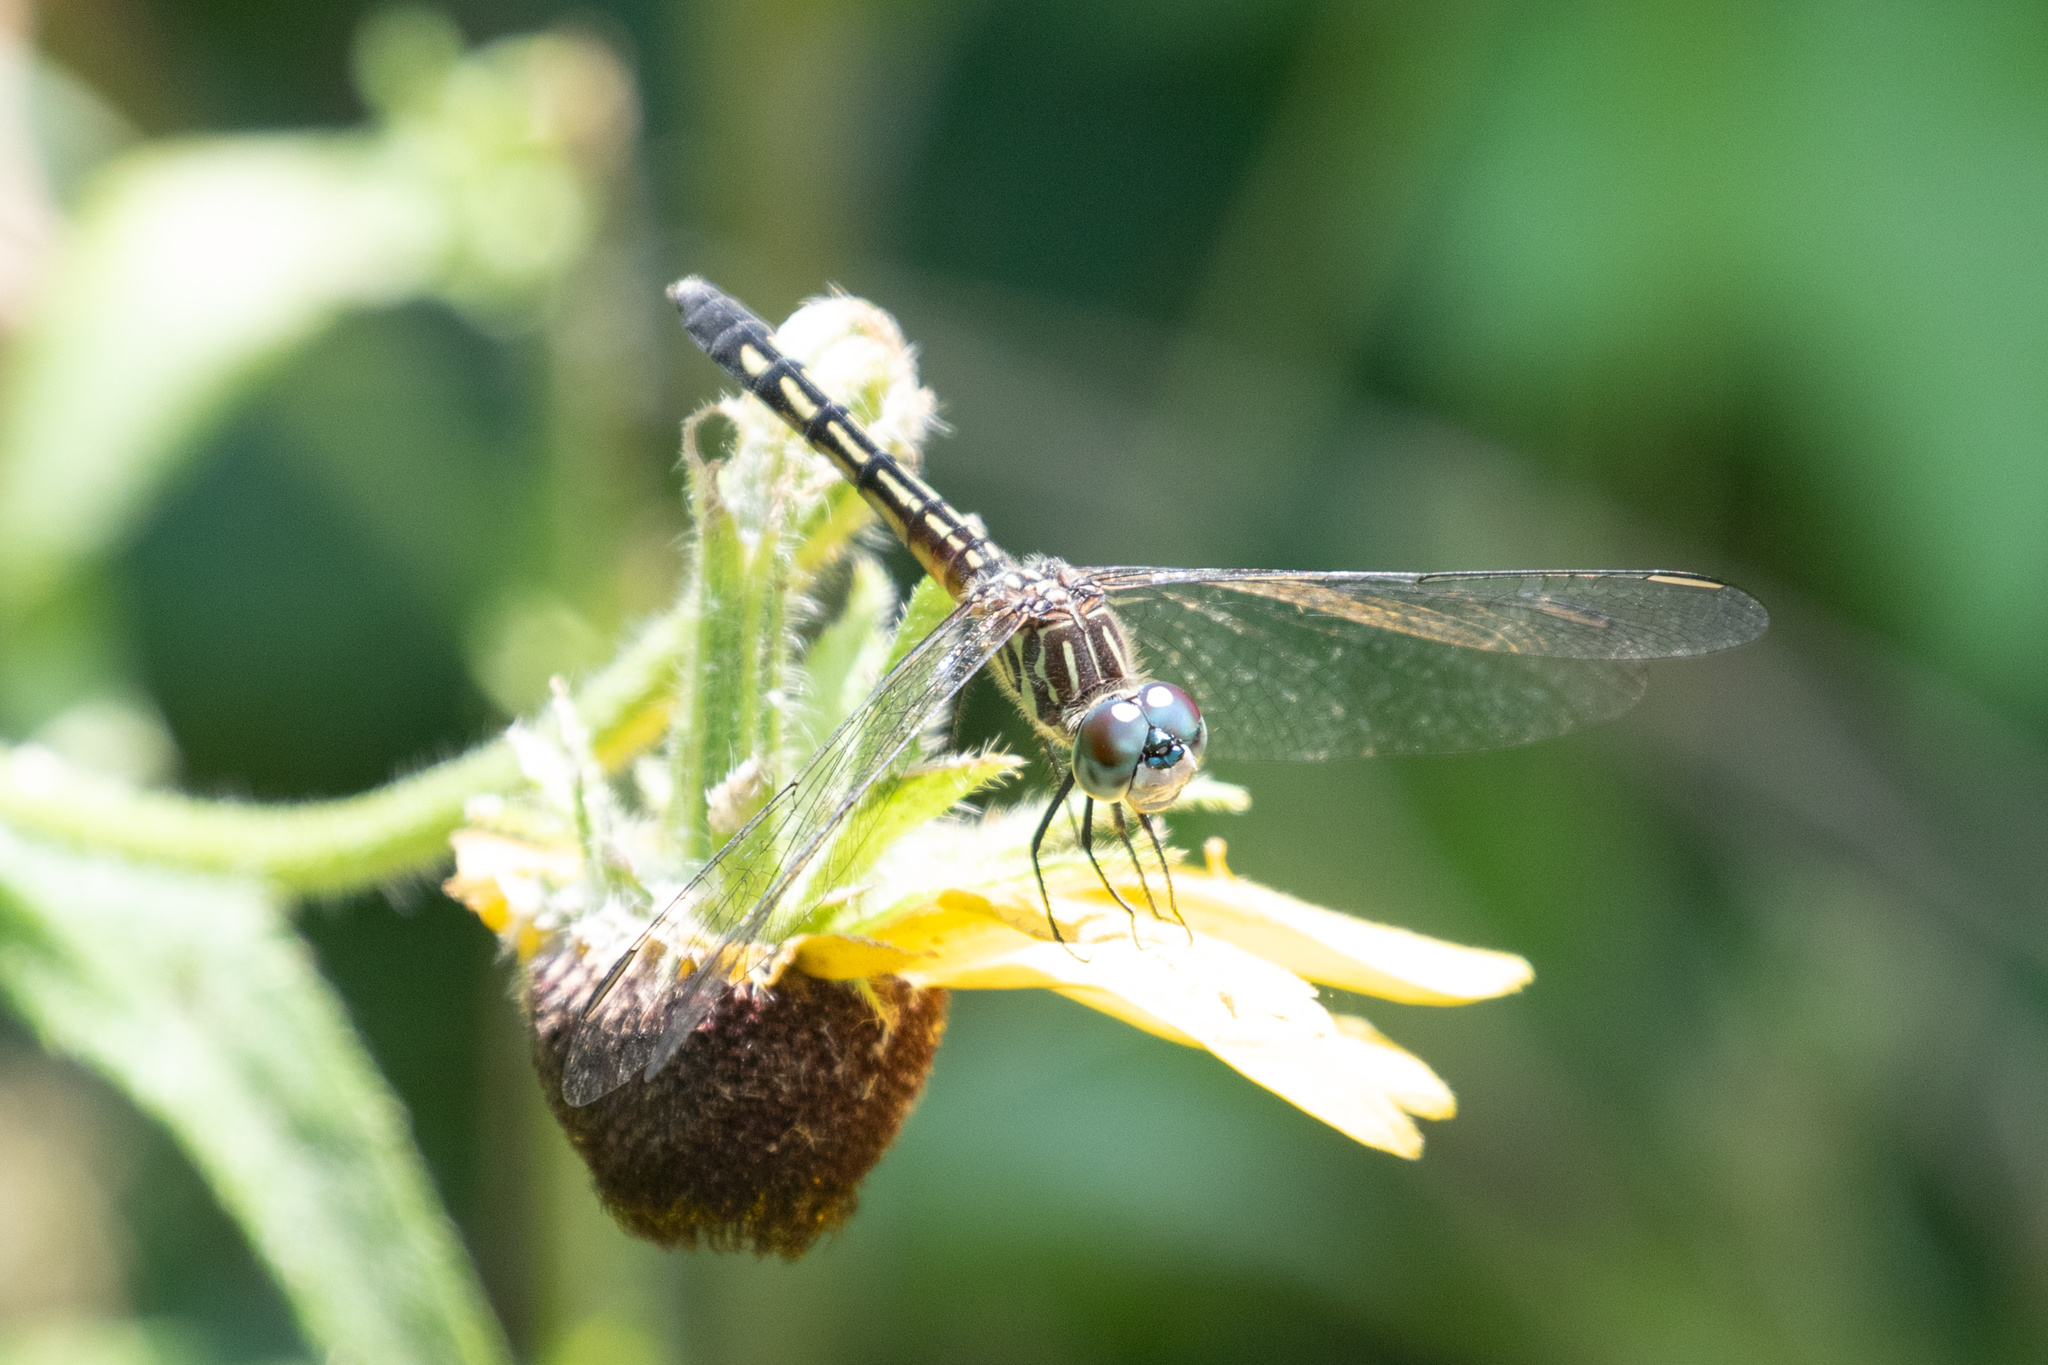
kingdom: Animalia
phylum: Arthropoda
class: Insecta
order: Odonata
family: Libellulidae
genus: Pachydiplax
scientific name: Pachydiplax longipennis
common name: Blue dasher
